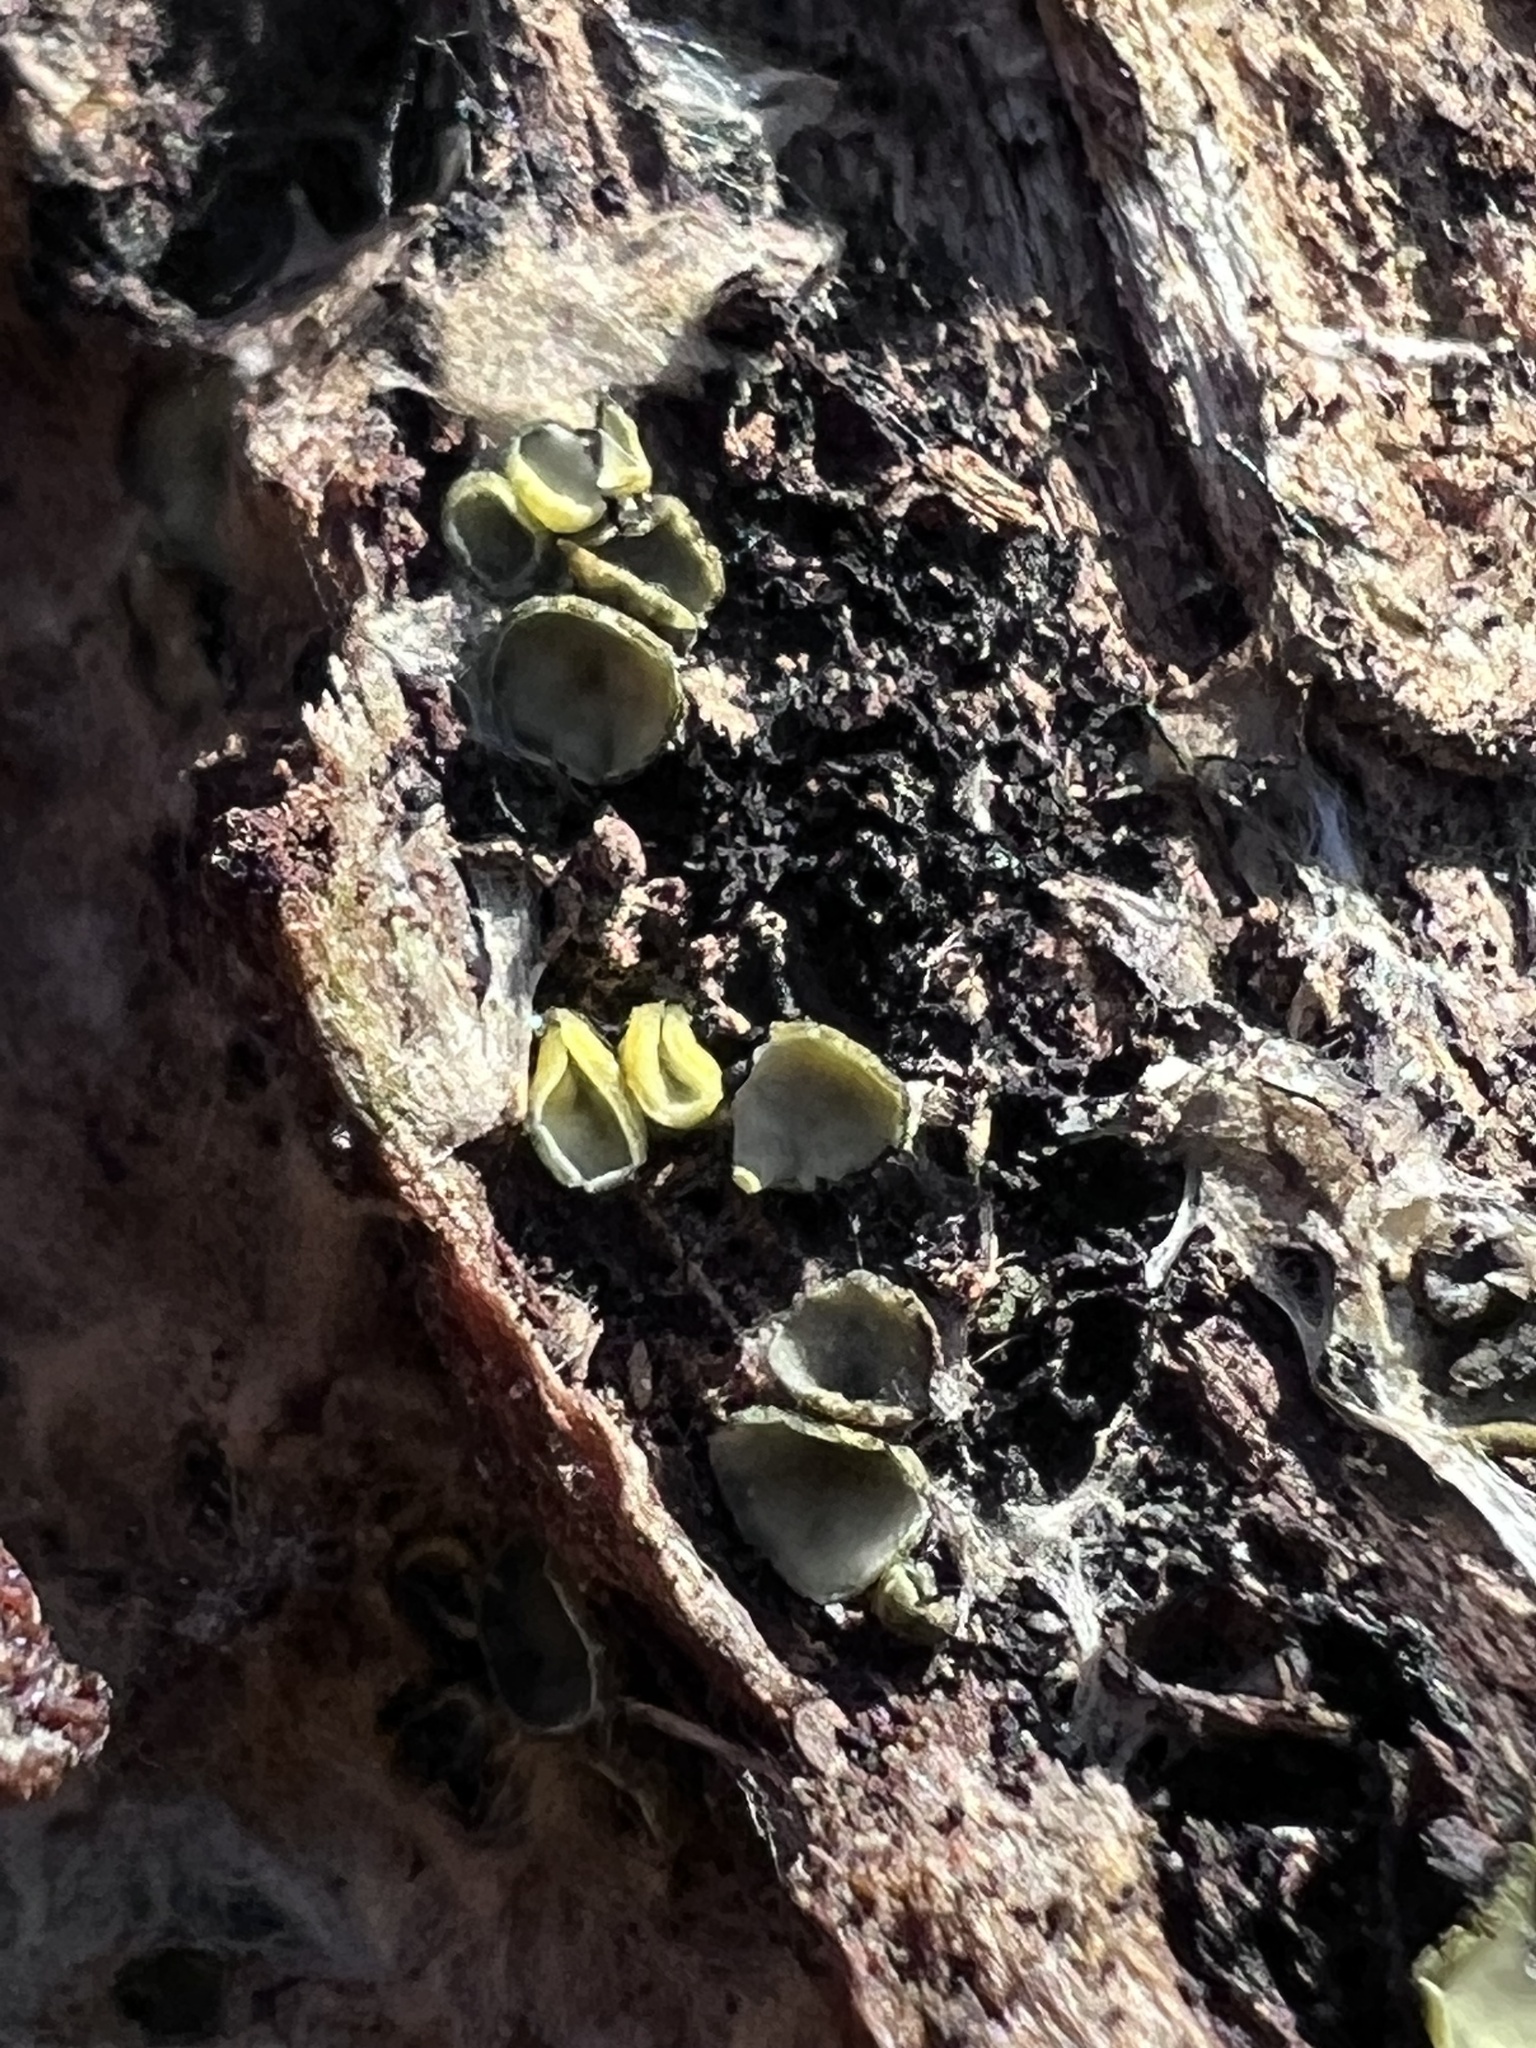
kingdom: Fungi
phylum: Ascomycota
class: Leotiomycetes
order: Helotiales
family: Chlorospleniaceae
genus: Chlorosplenium
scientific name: Chlorosplenium chlora
